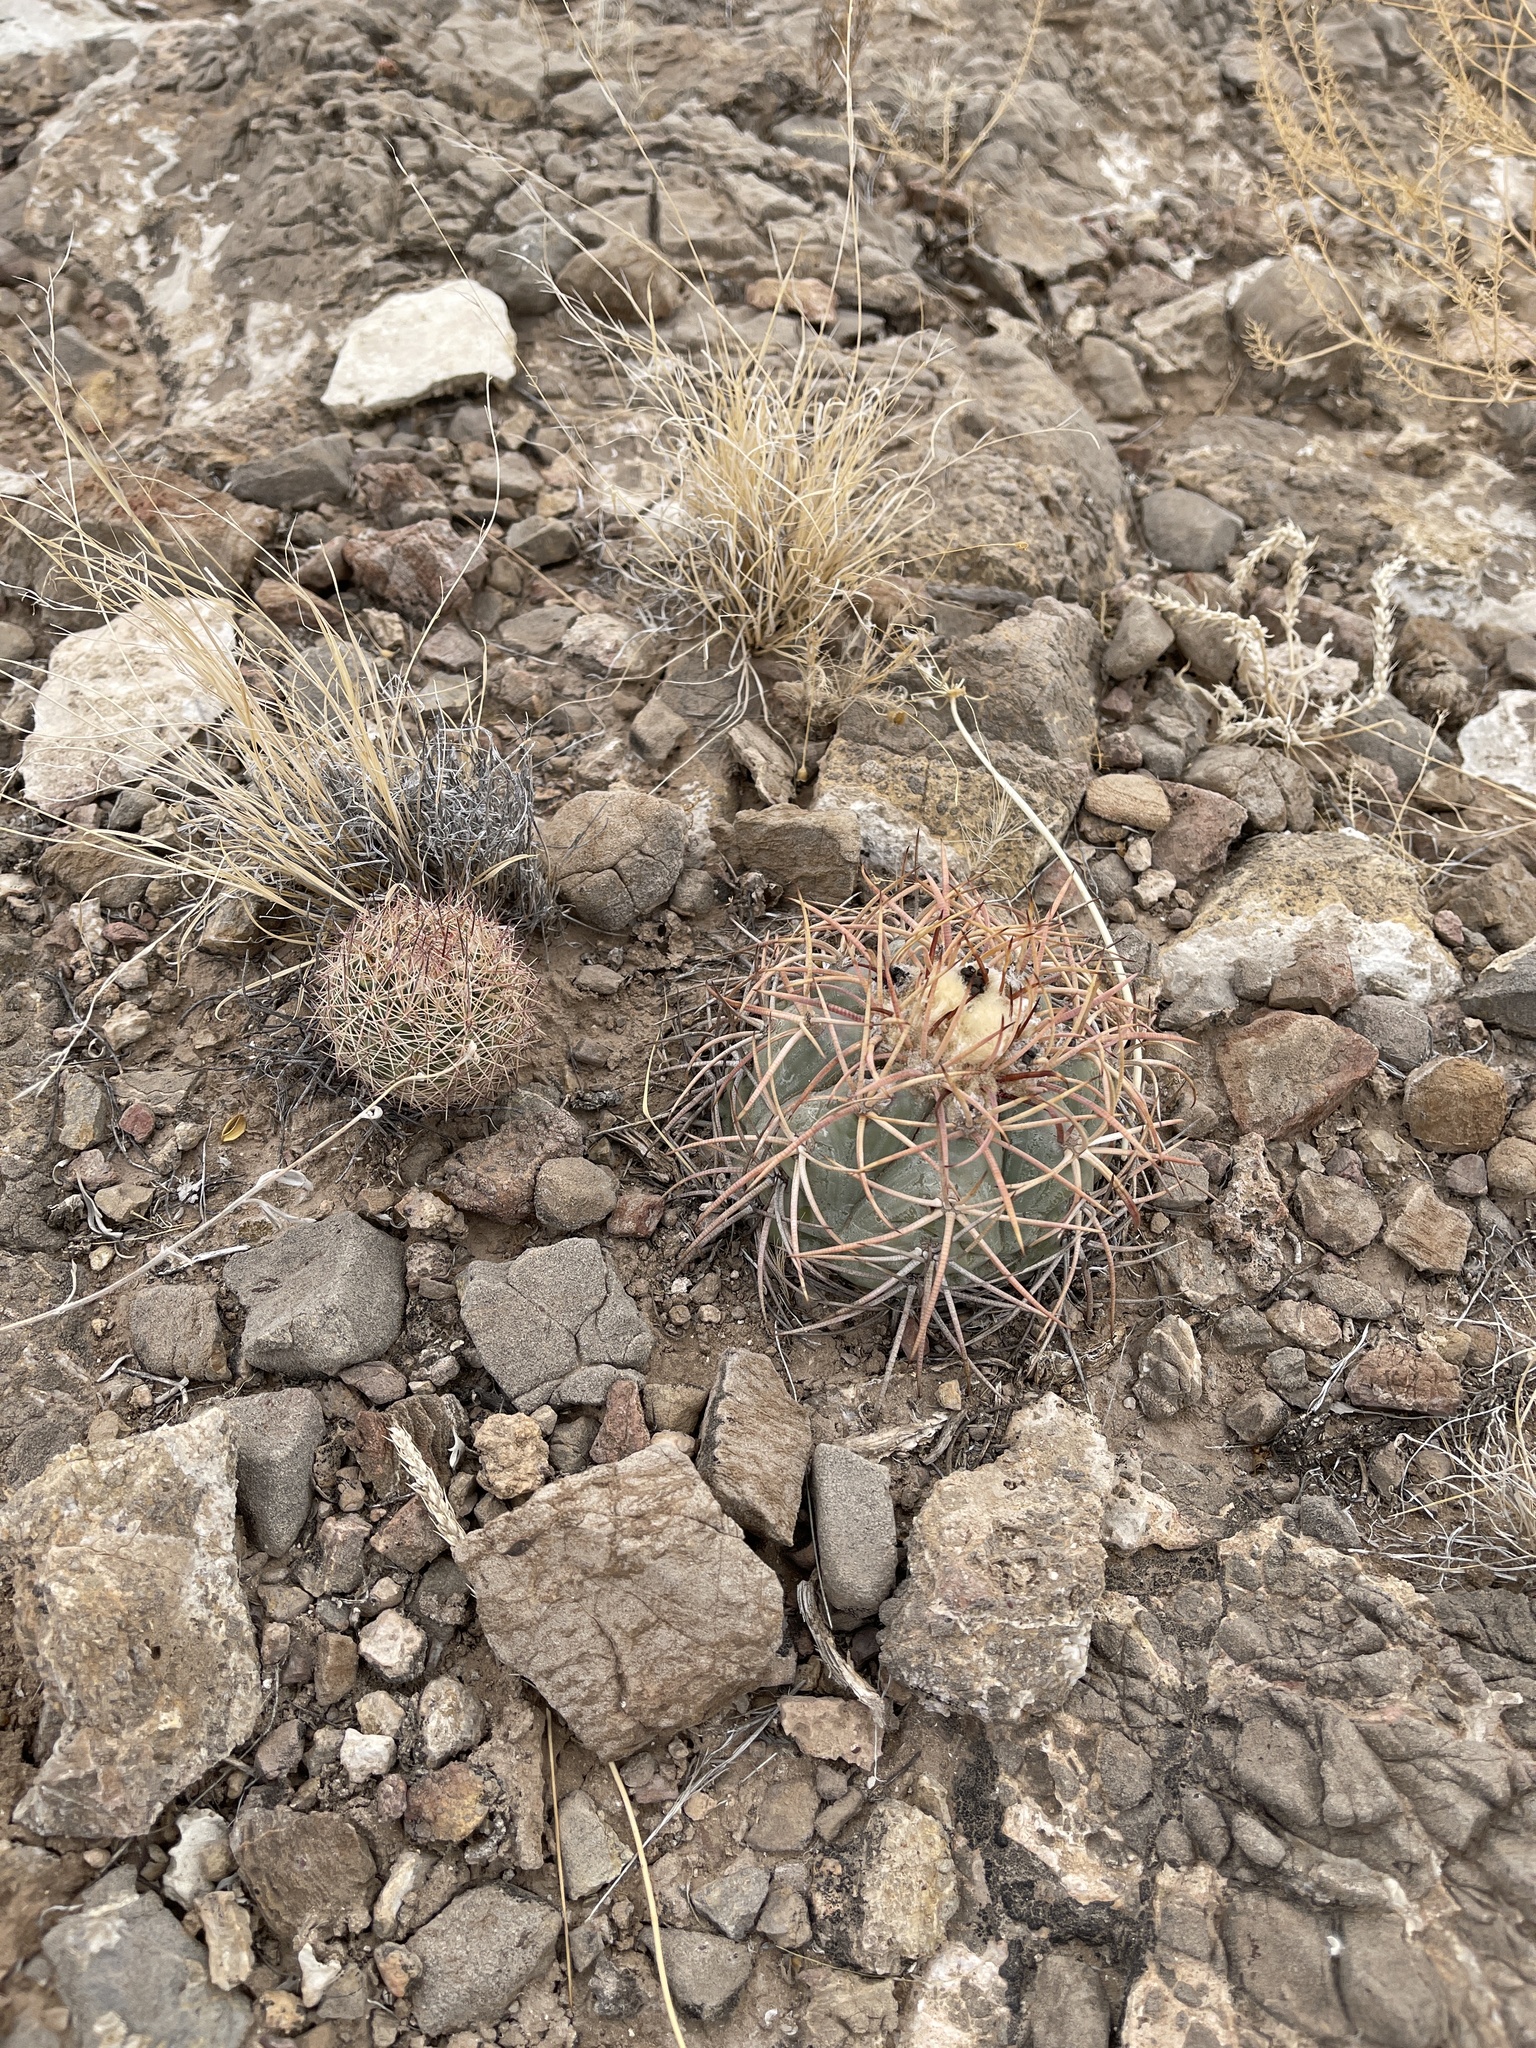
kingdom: Plantae
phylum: Tracheophyta
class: Magnoliopsida
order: Caryophyllales
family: Cactaceae
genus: Sclerocactus
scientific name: Sclerocactus intertextus
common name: White fish-hook cactus
